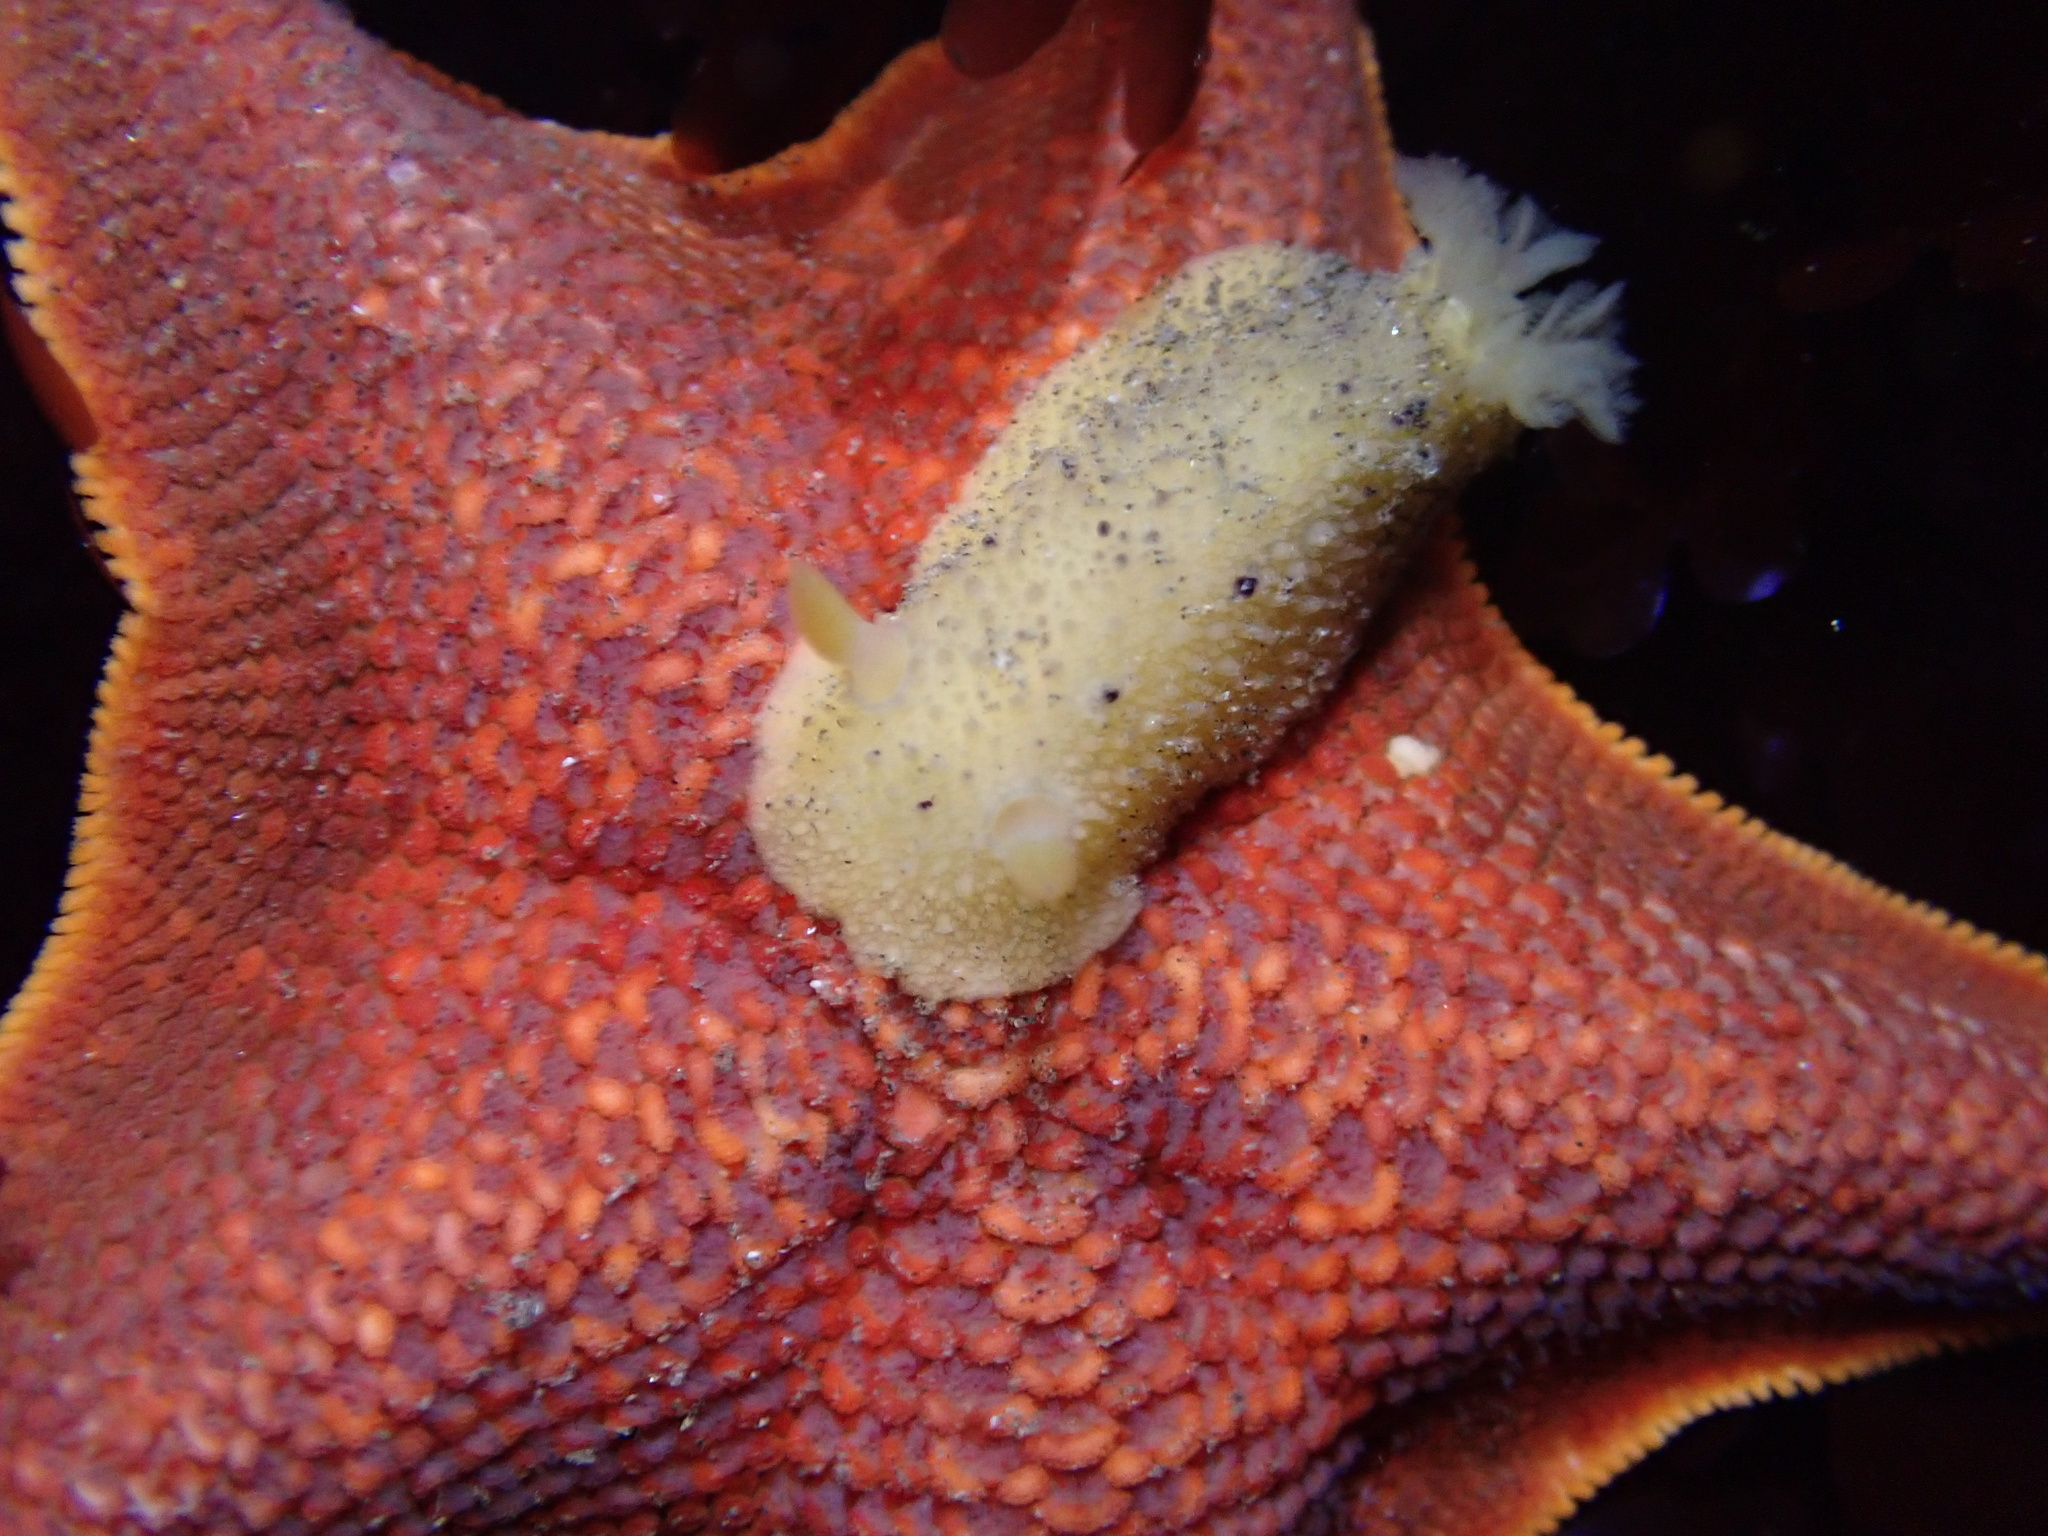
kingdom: Animalia
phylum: Mollusca
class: Gastropoda
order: Nudibranchia
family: Dorididae
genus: Doris
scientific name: Doris montereyensis
